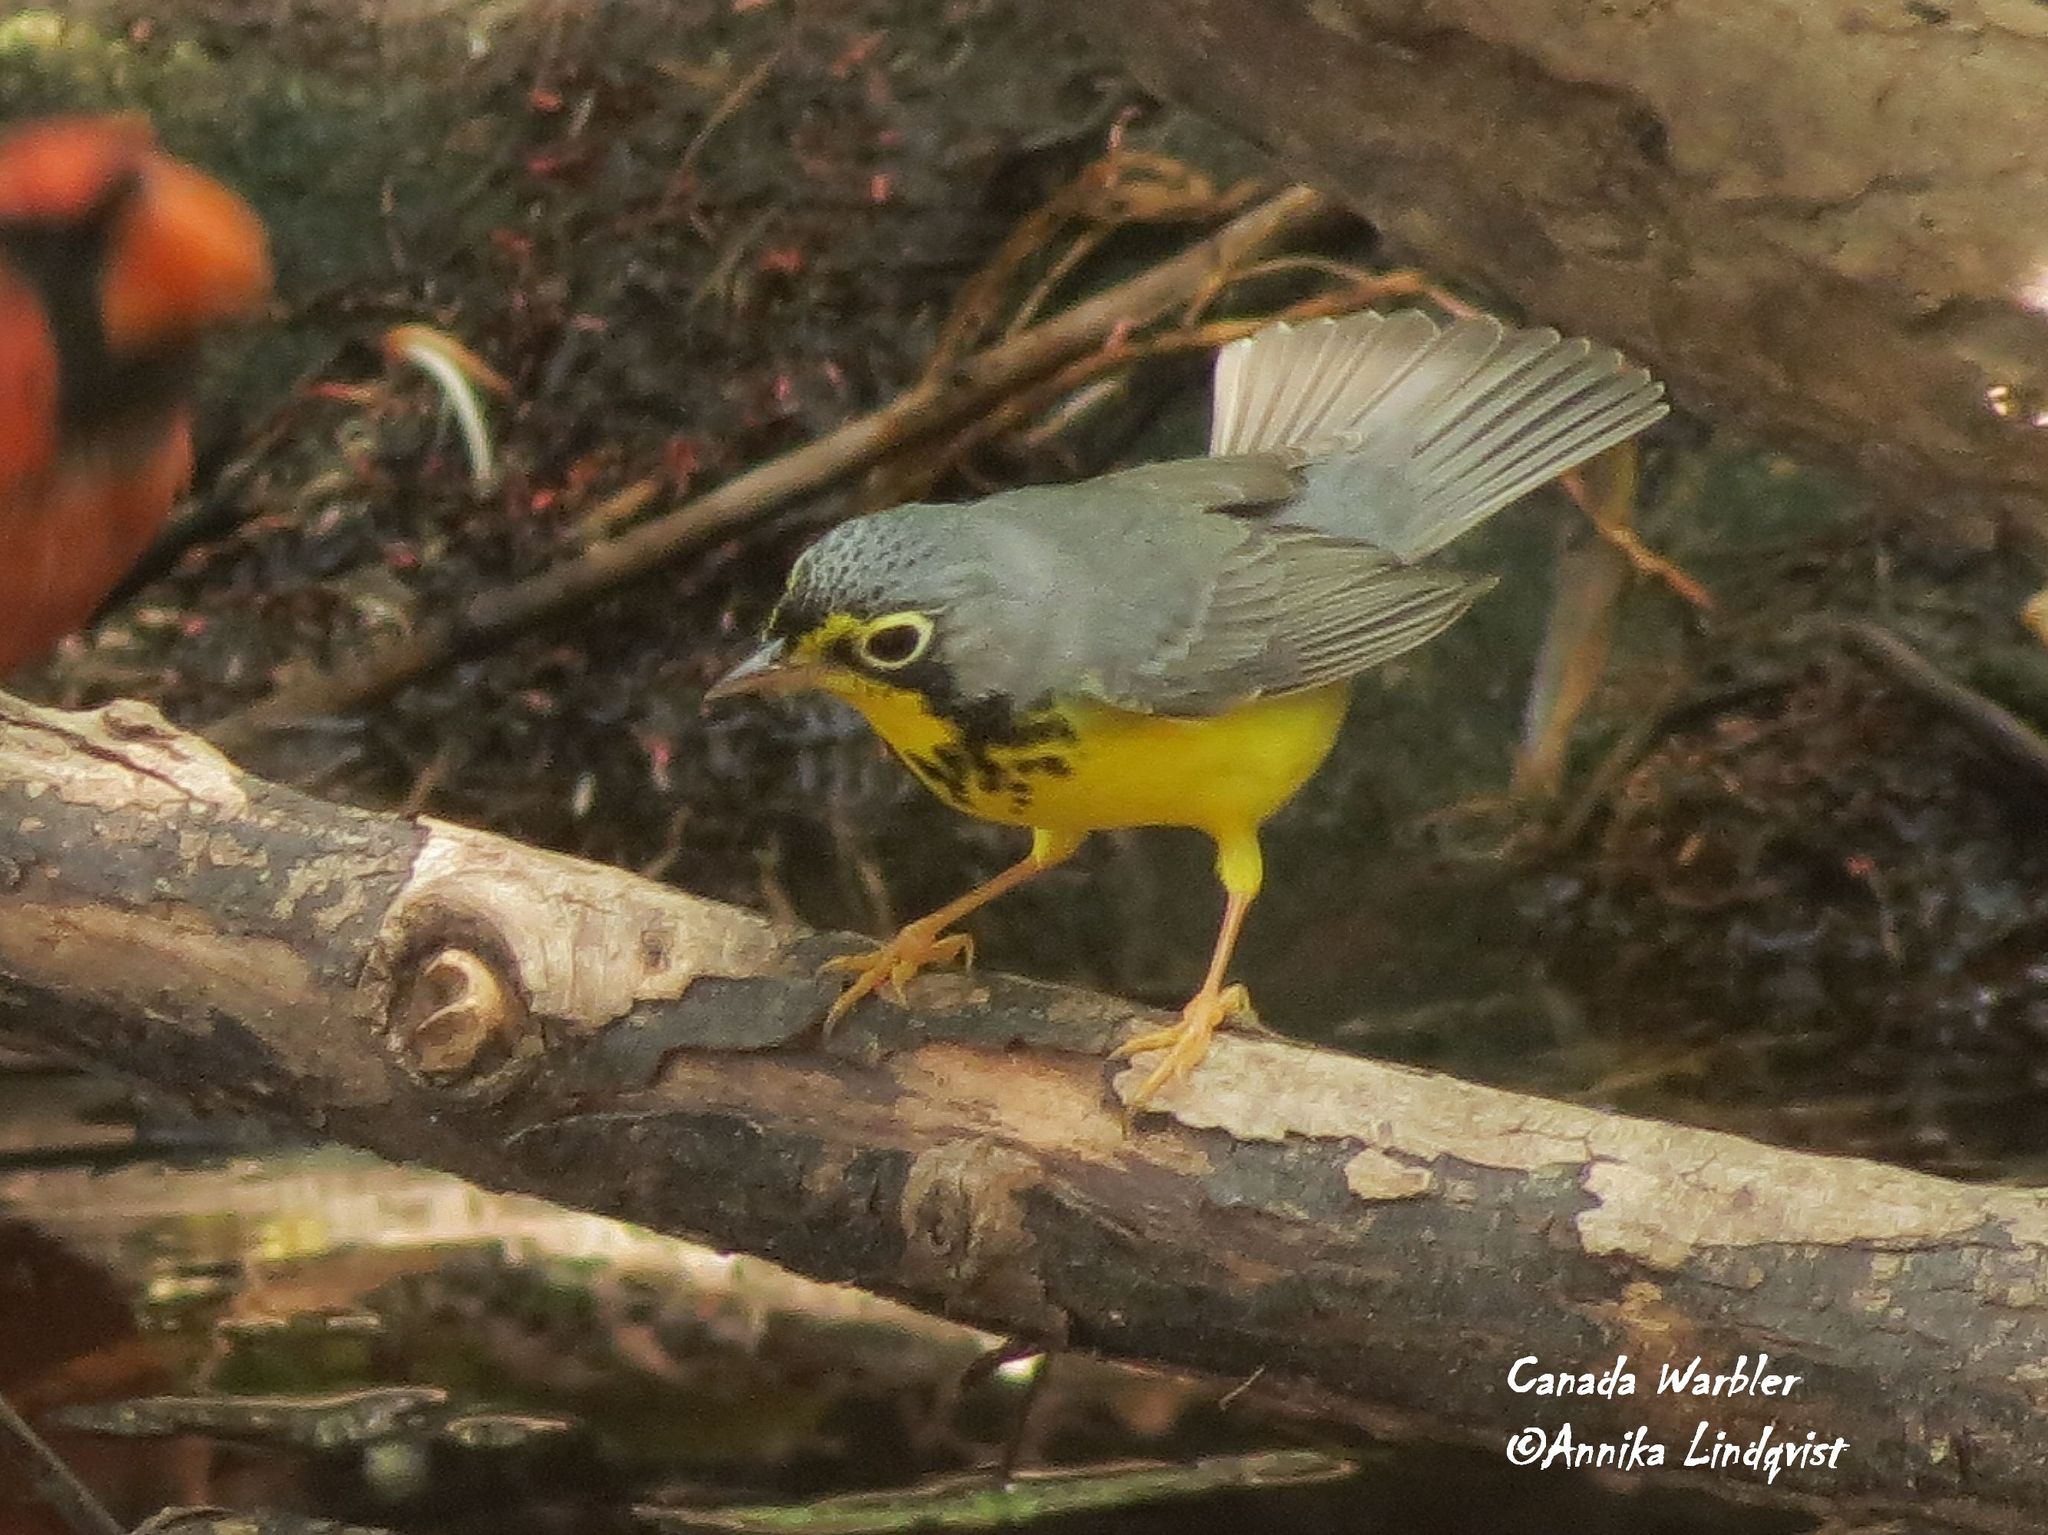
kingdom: Animalia
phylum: Chordata
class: Aves
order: Passeriformes
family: Parulidae
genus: Cardellina
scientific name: Cardellina canadensis
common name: Canada warbler
